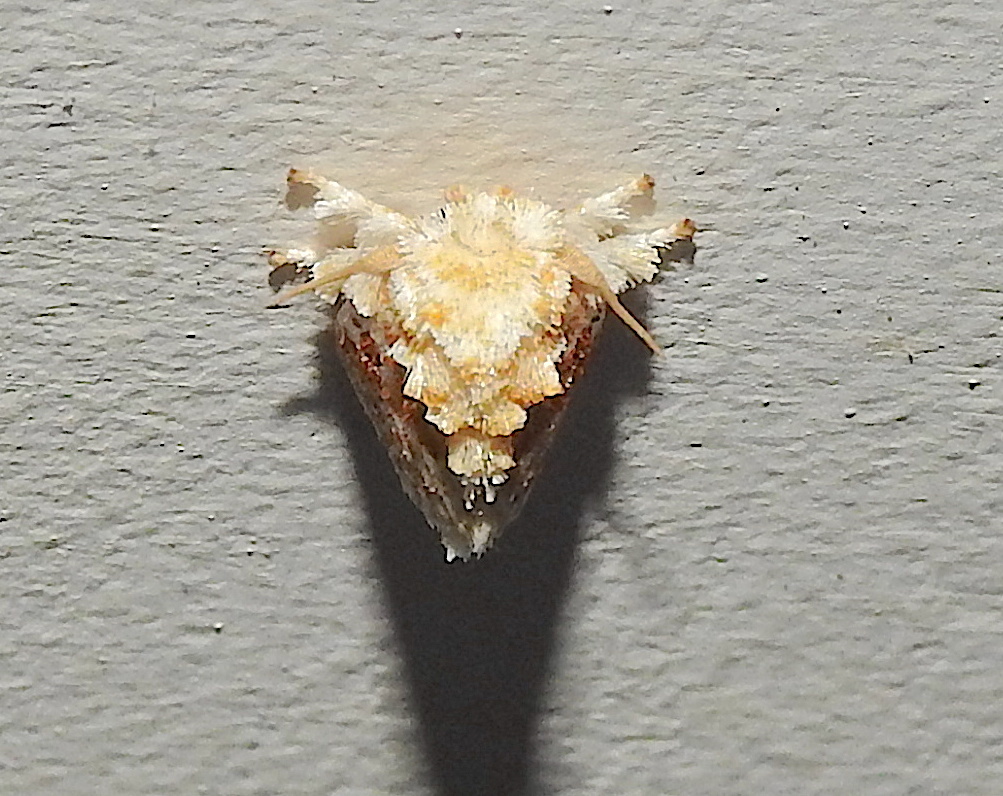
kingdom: Animalia
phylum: Arthropoda
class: Insecta
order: Lepidoptera
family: Limacodidae
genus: Narosa
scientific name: Narosa conspersa
